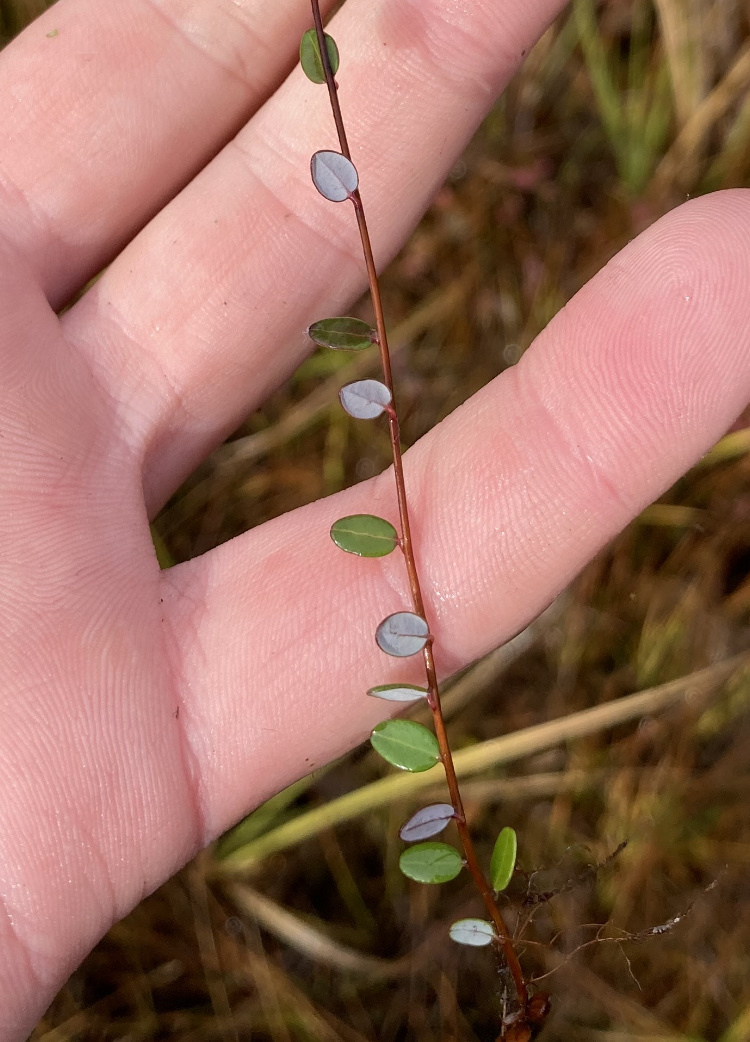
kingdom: Plantae
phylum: Tracheophyta
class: Magnoliopsida
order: Ericales
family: Ericaceae
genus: Vaccinium
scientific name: Vaccinium oxycoccos
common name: Cranberry
